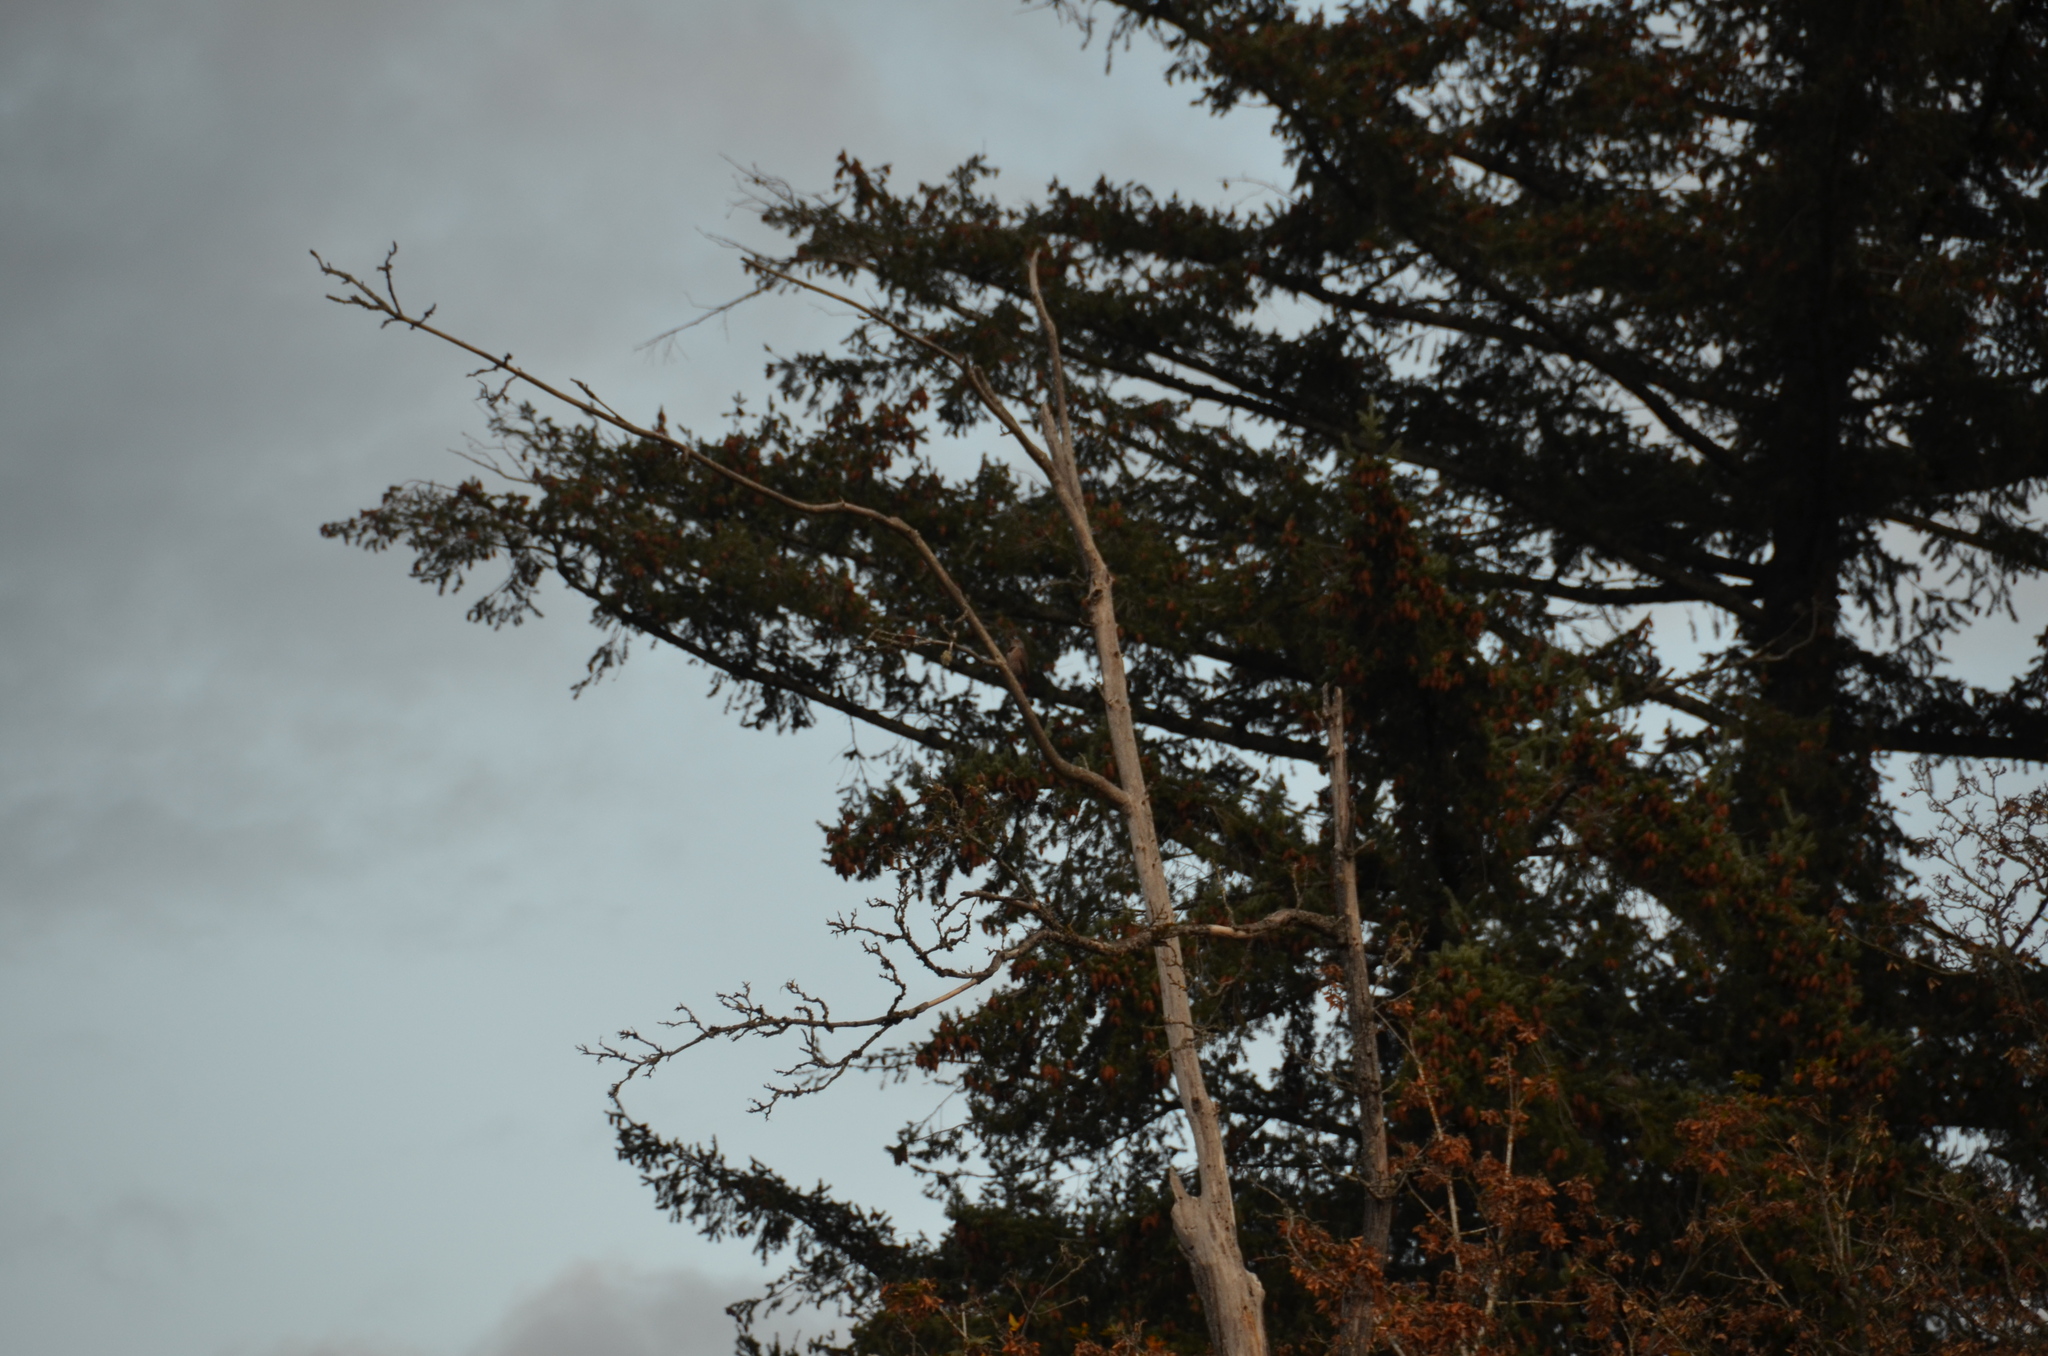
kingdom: Animalia
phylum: Chordata
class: Aves
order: Piciformes
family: Picidae
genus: Colaptes
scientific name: Colaptes auratus
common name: Northern flicker
